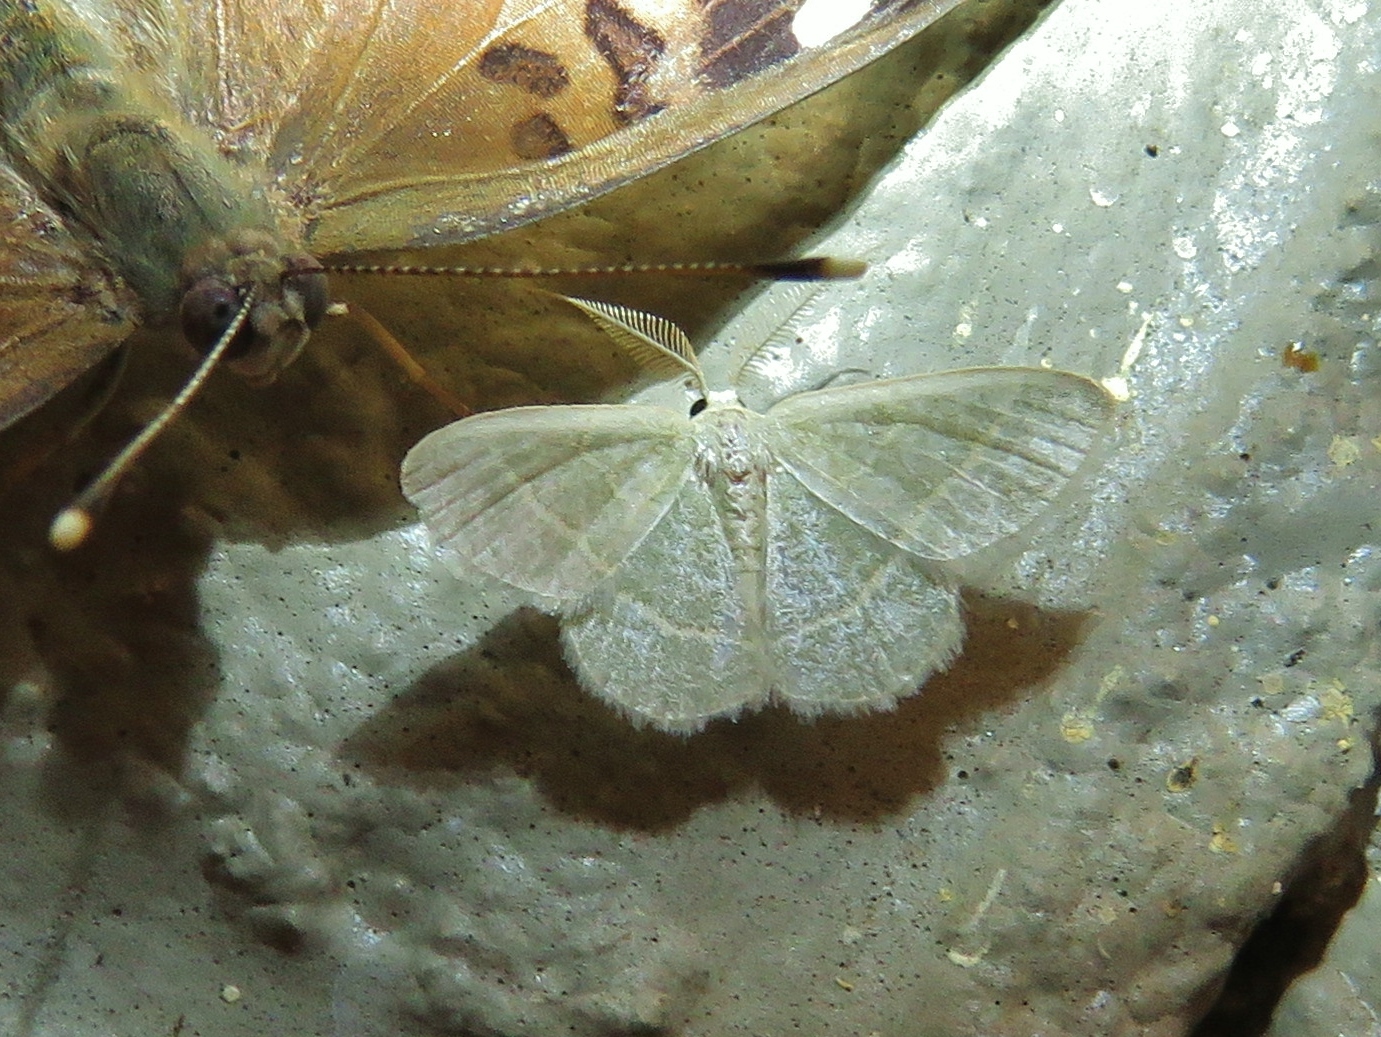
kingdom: Animalia
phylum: Arthropoda
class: Insecta
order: Lepidoptera
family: Geometridae
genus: Chlorochlamys
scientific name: Chlorochlamys chloroleucaria
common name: Blackberry looper
